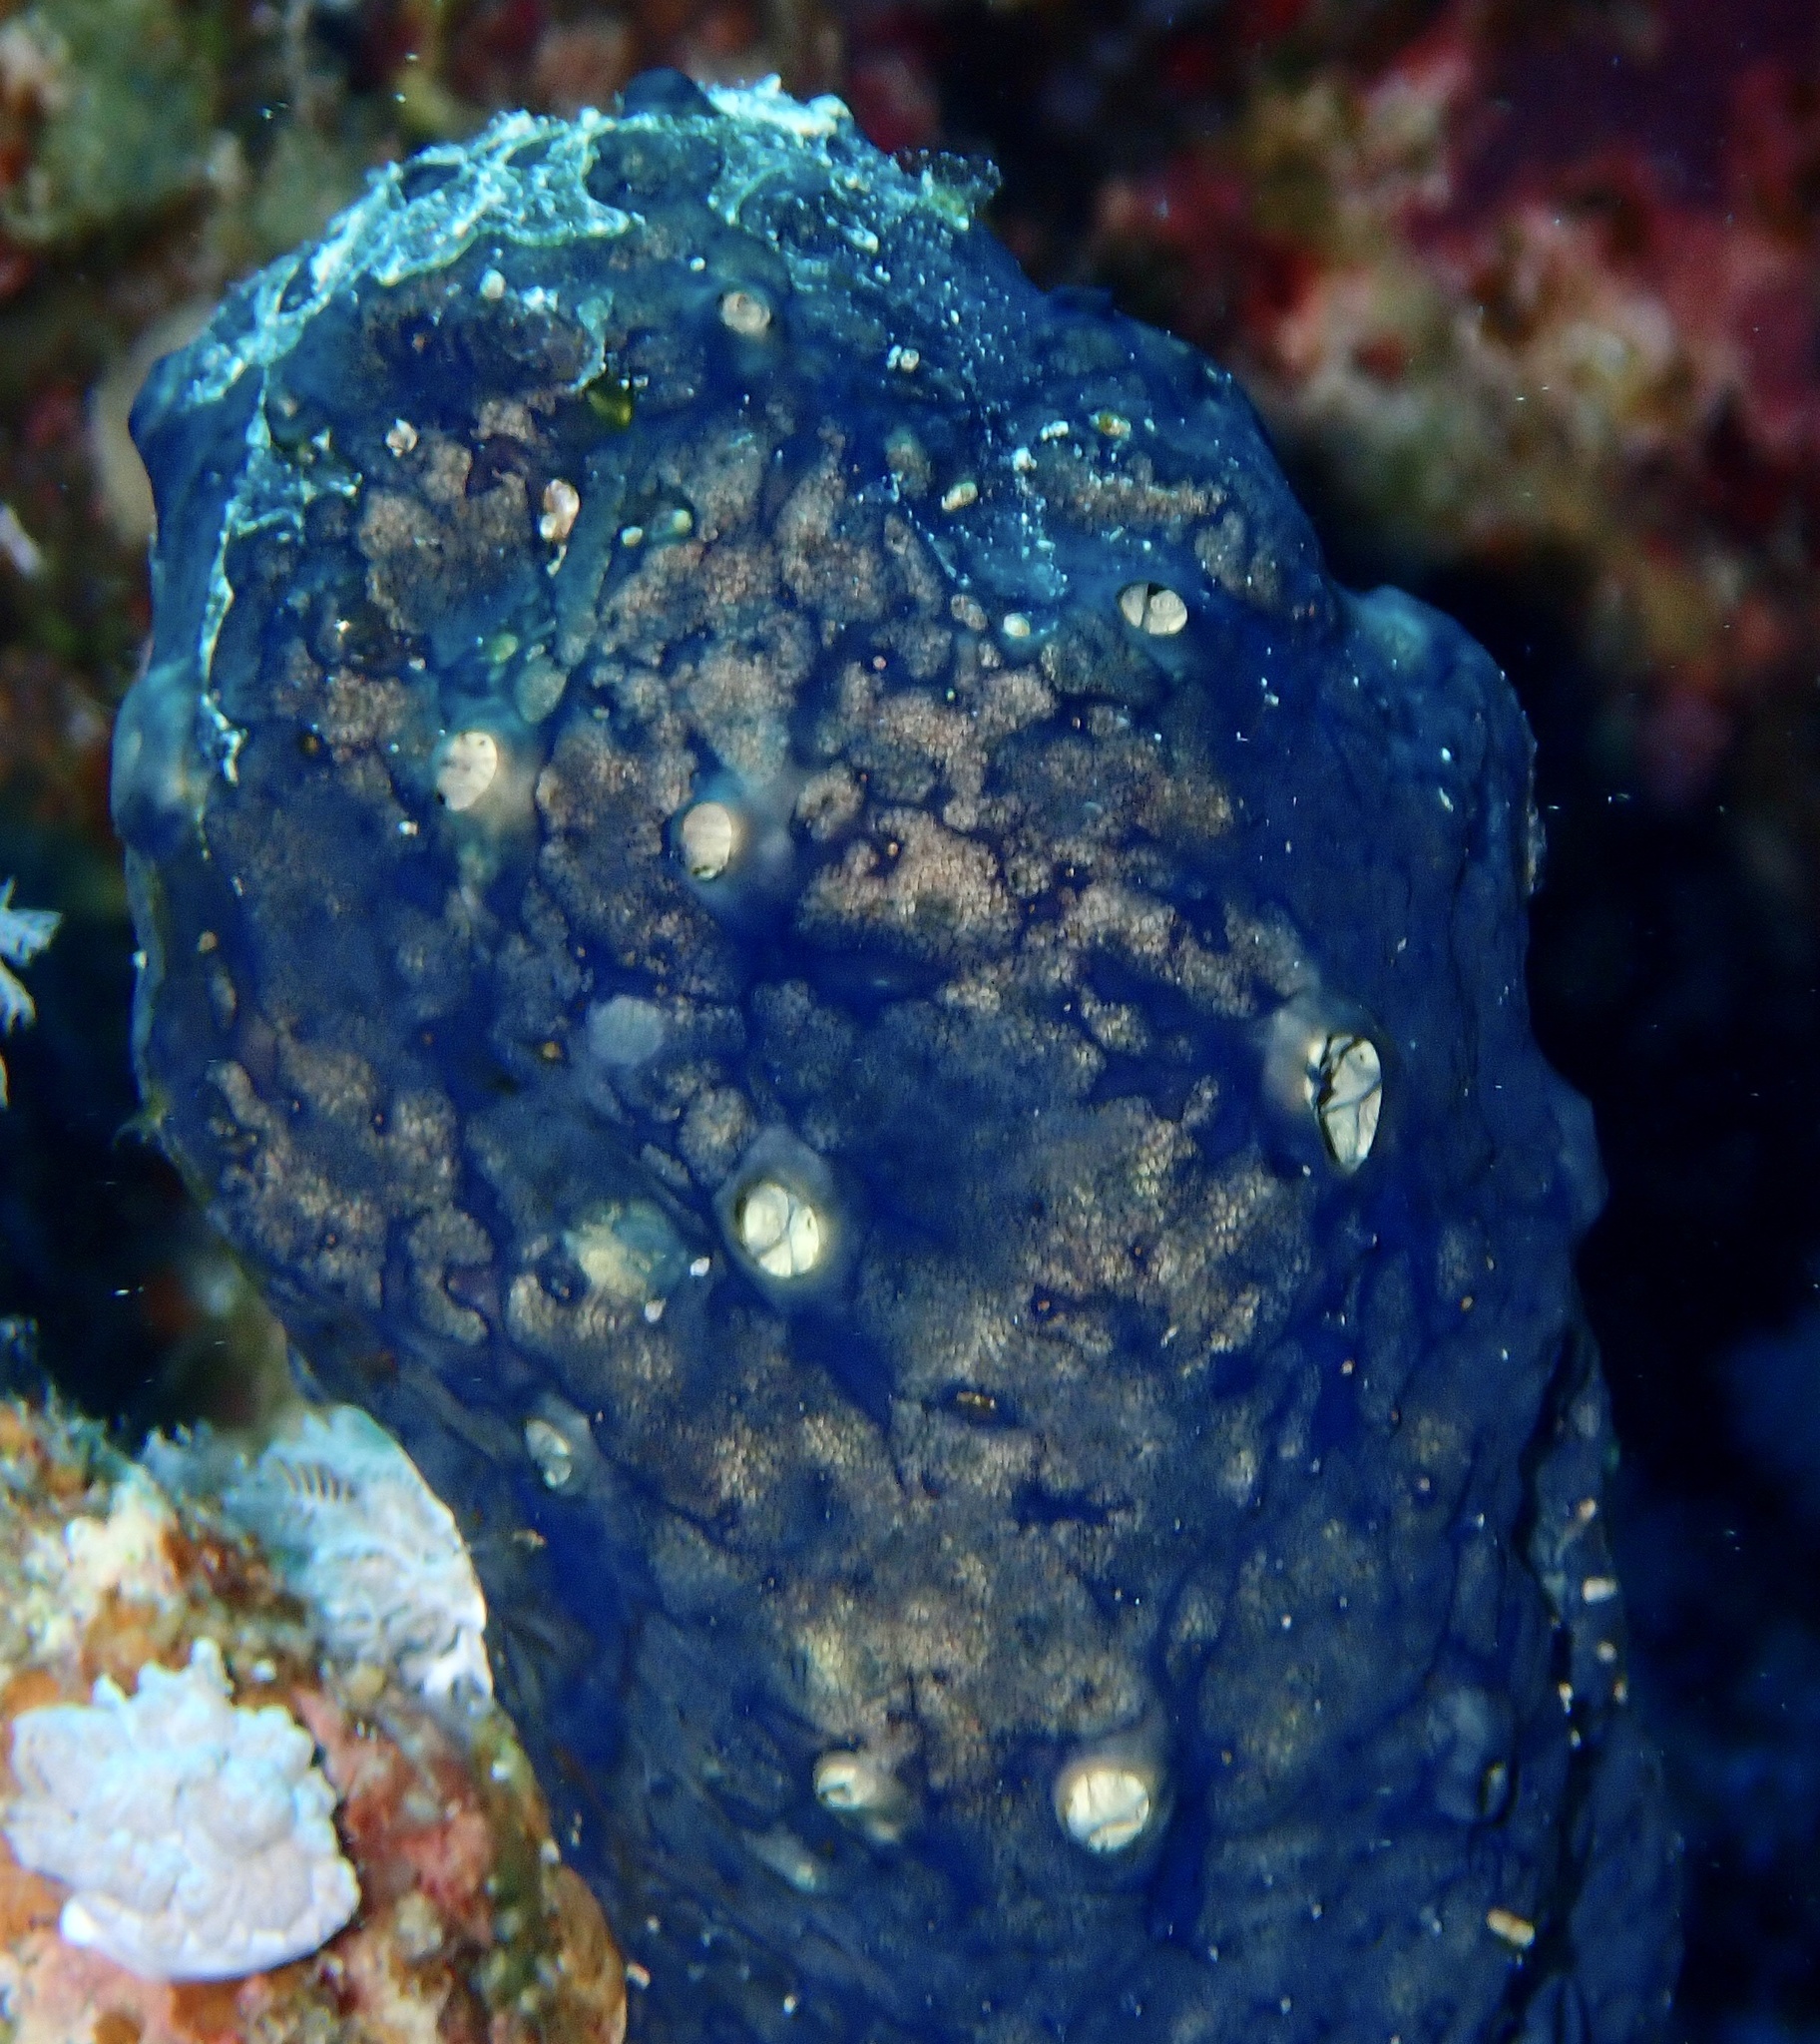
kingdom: Animalia
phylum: Porifera
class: Demospongiae
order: Poecilosclerida
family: Hymedesmiidae
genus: Hemimycale
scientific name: Hemimycale arabica
